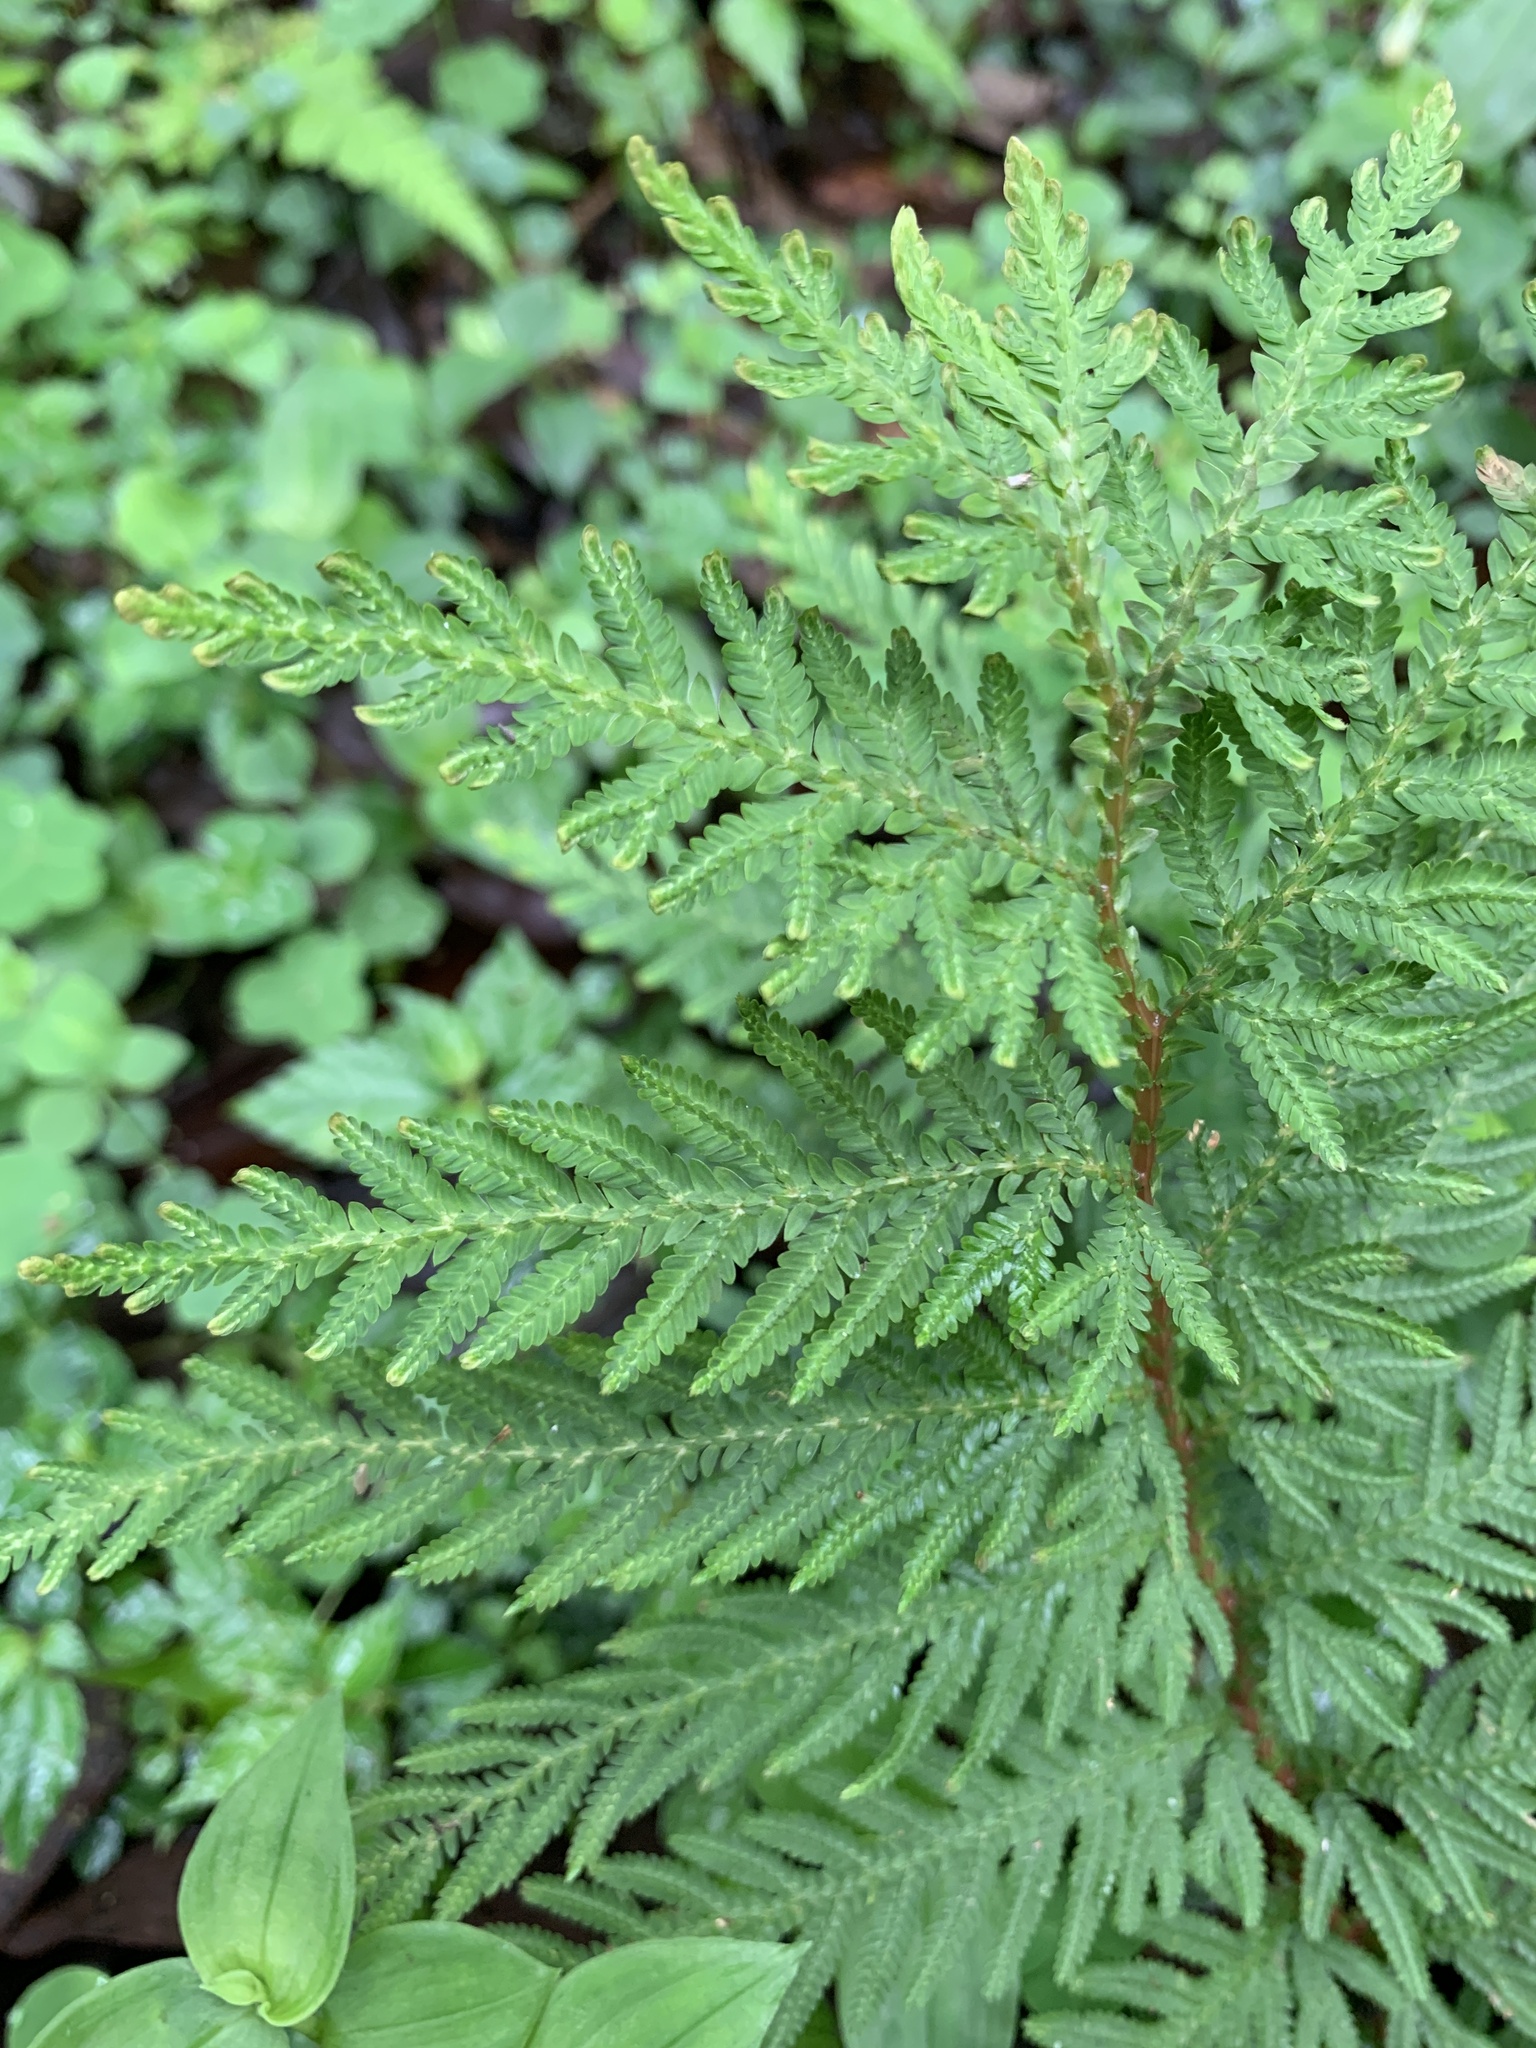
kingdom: Plantae
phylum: Tracheophyta
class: Lycopodiopsida
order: Selaginellales
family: Selaginellaceae
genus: Selaginella
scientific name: Selaginella delicatula
